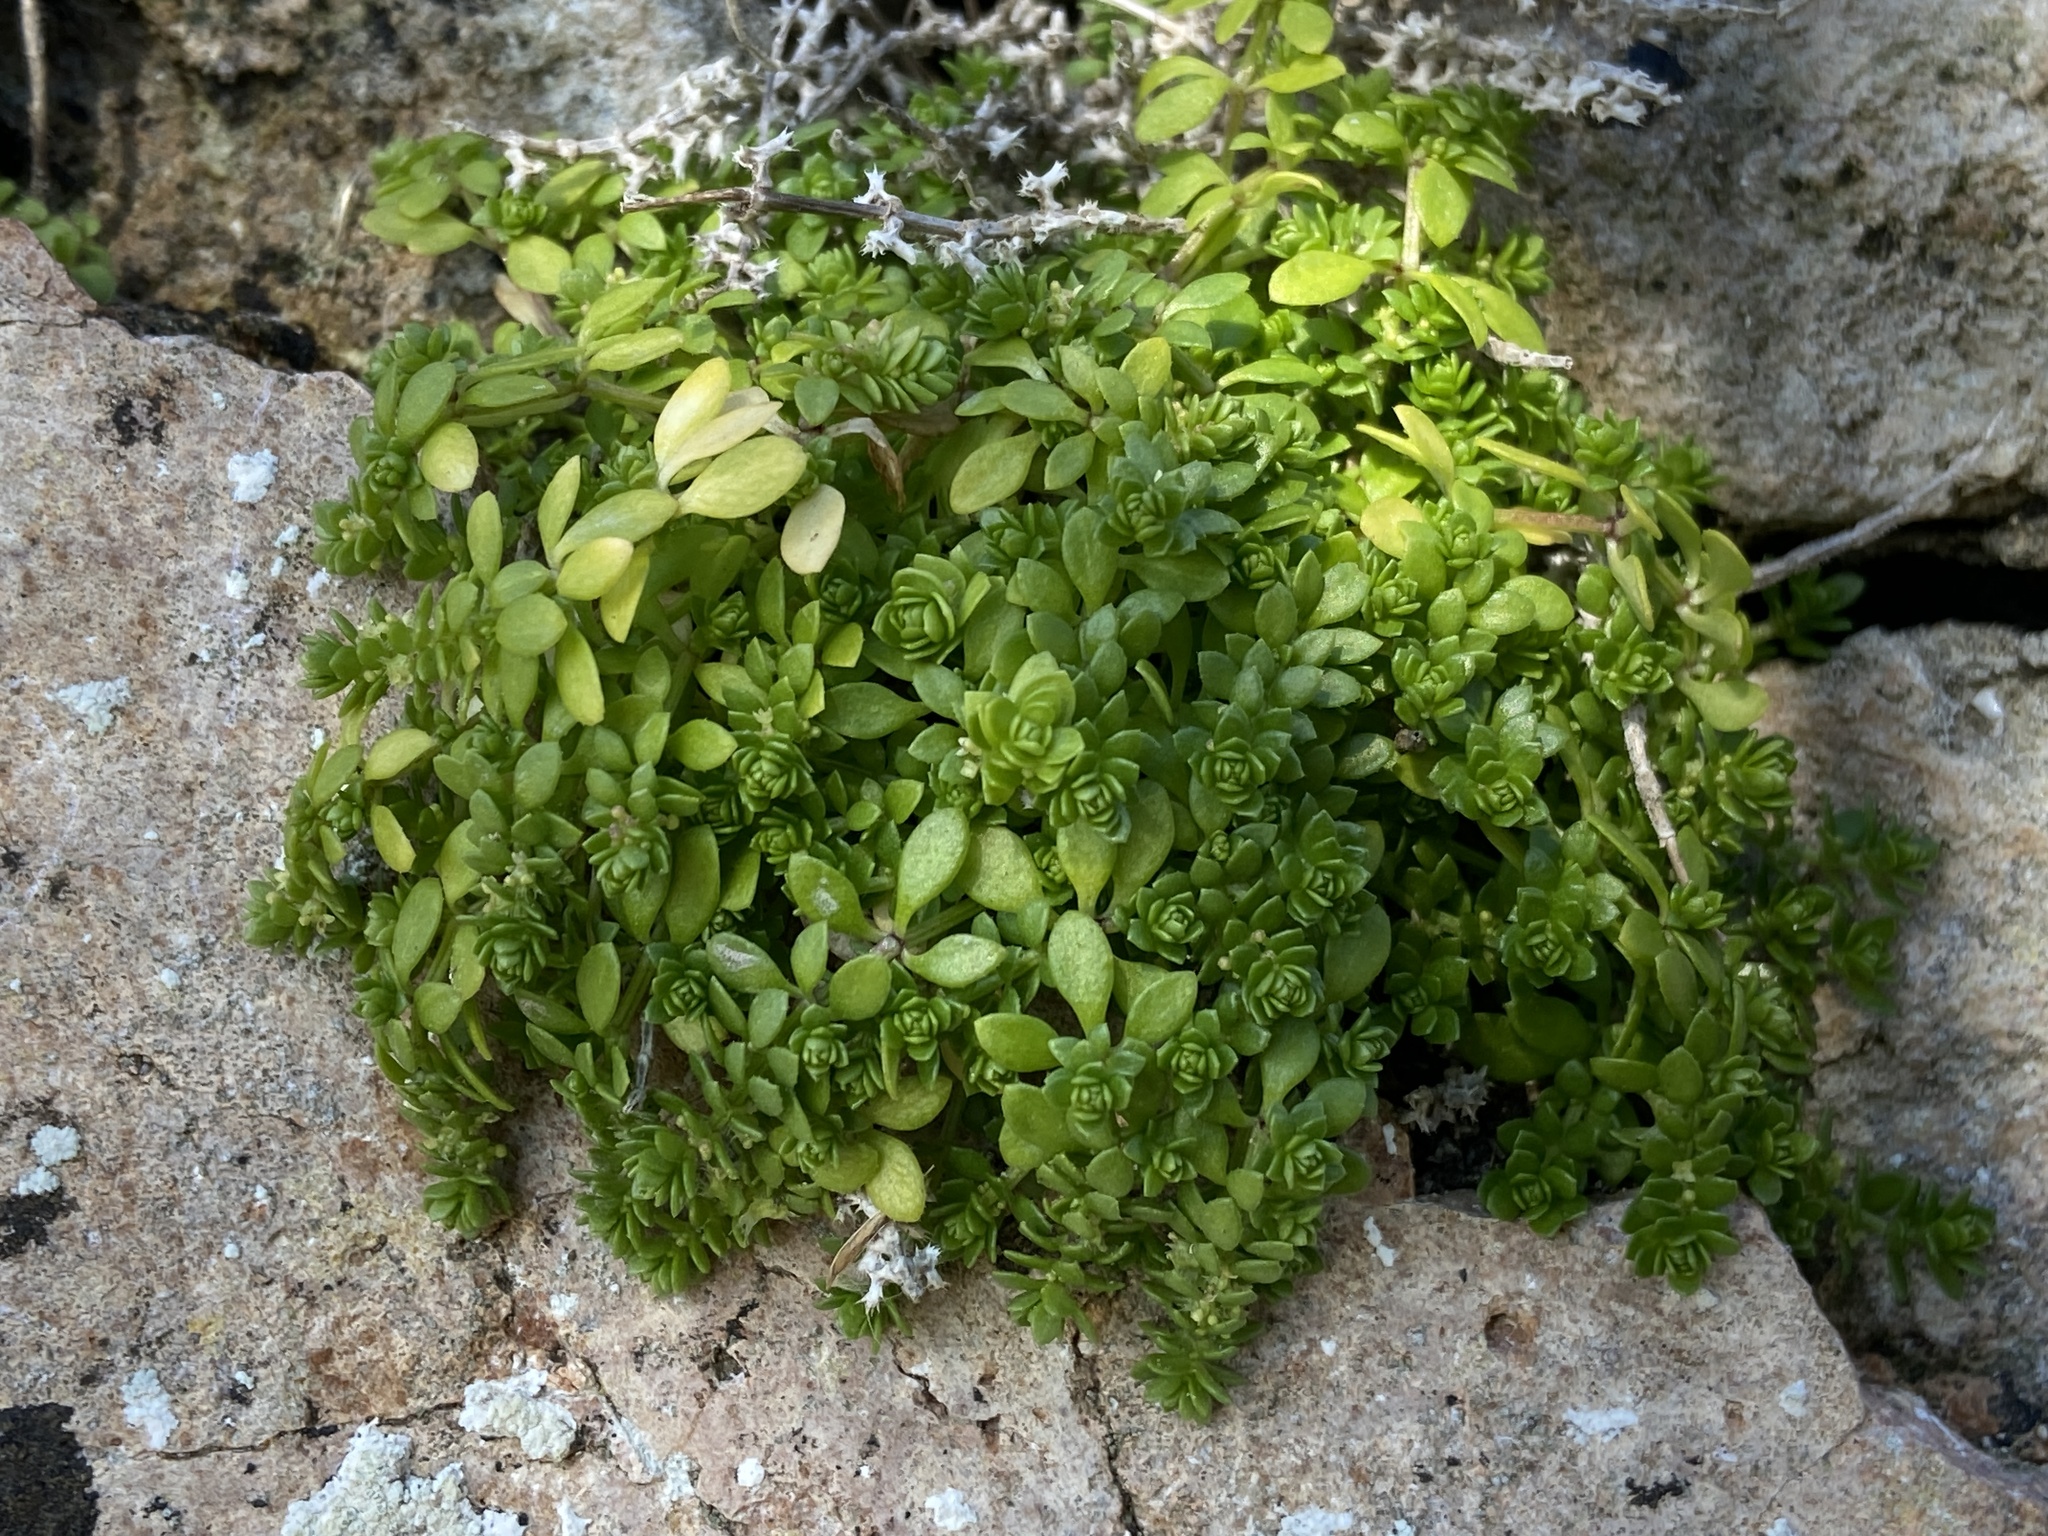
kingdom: Plantae
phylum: Tracheophyta
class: Magnoliopsida
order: Gentianales
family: Rubiaceae
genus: Valantia
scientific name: Valantia muralis
